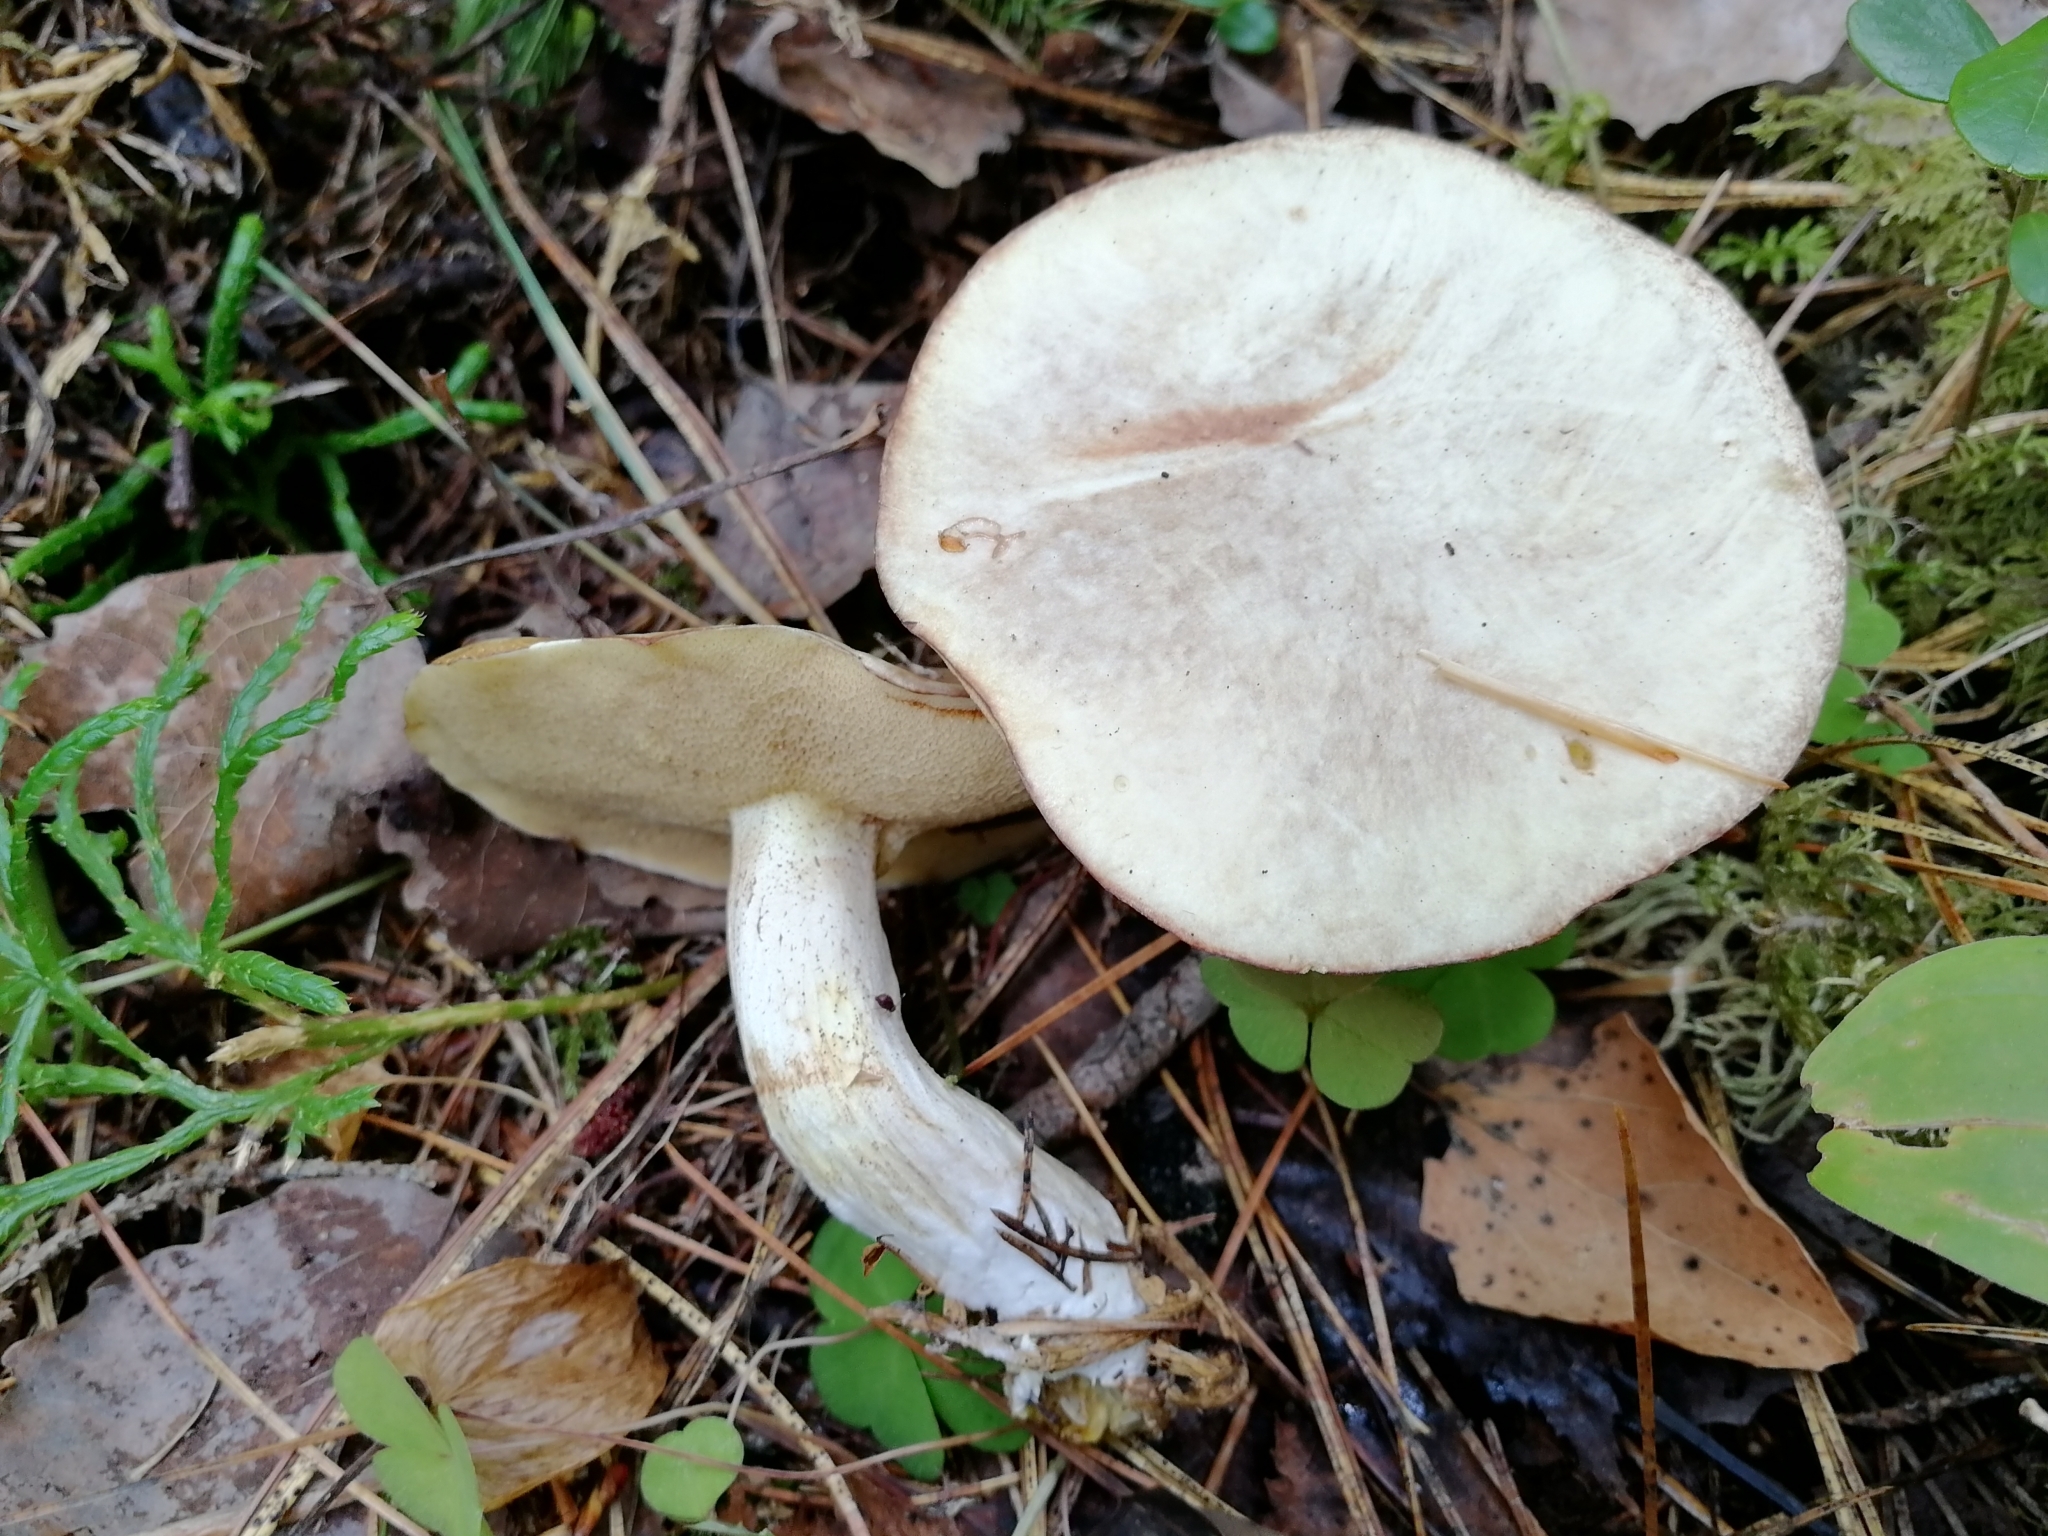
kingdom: Fungi
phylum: Basidiomycota
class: Agaricomycetes
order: Boletales
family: Suillaceae
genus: Suillus
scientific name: Suillus placidus
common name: Slippery white bolete
